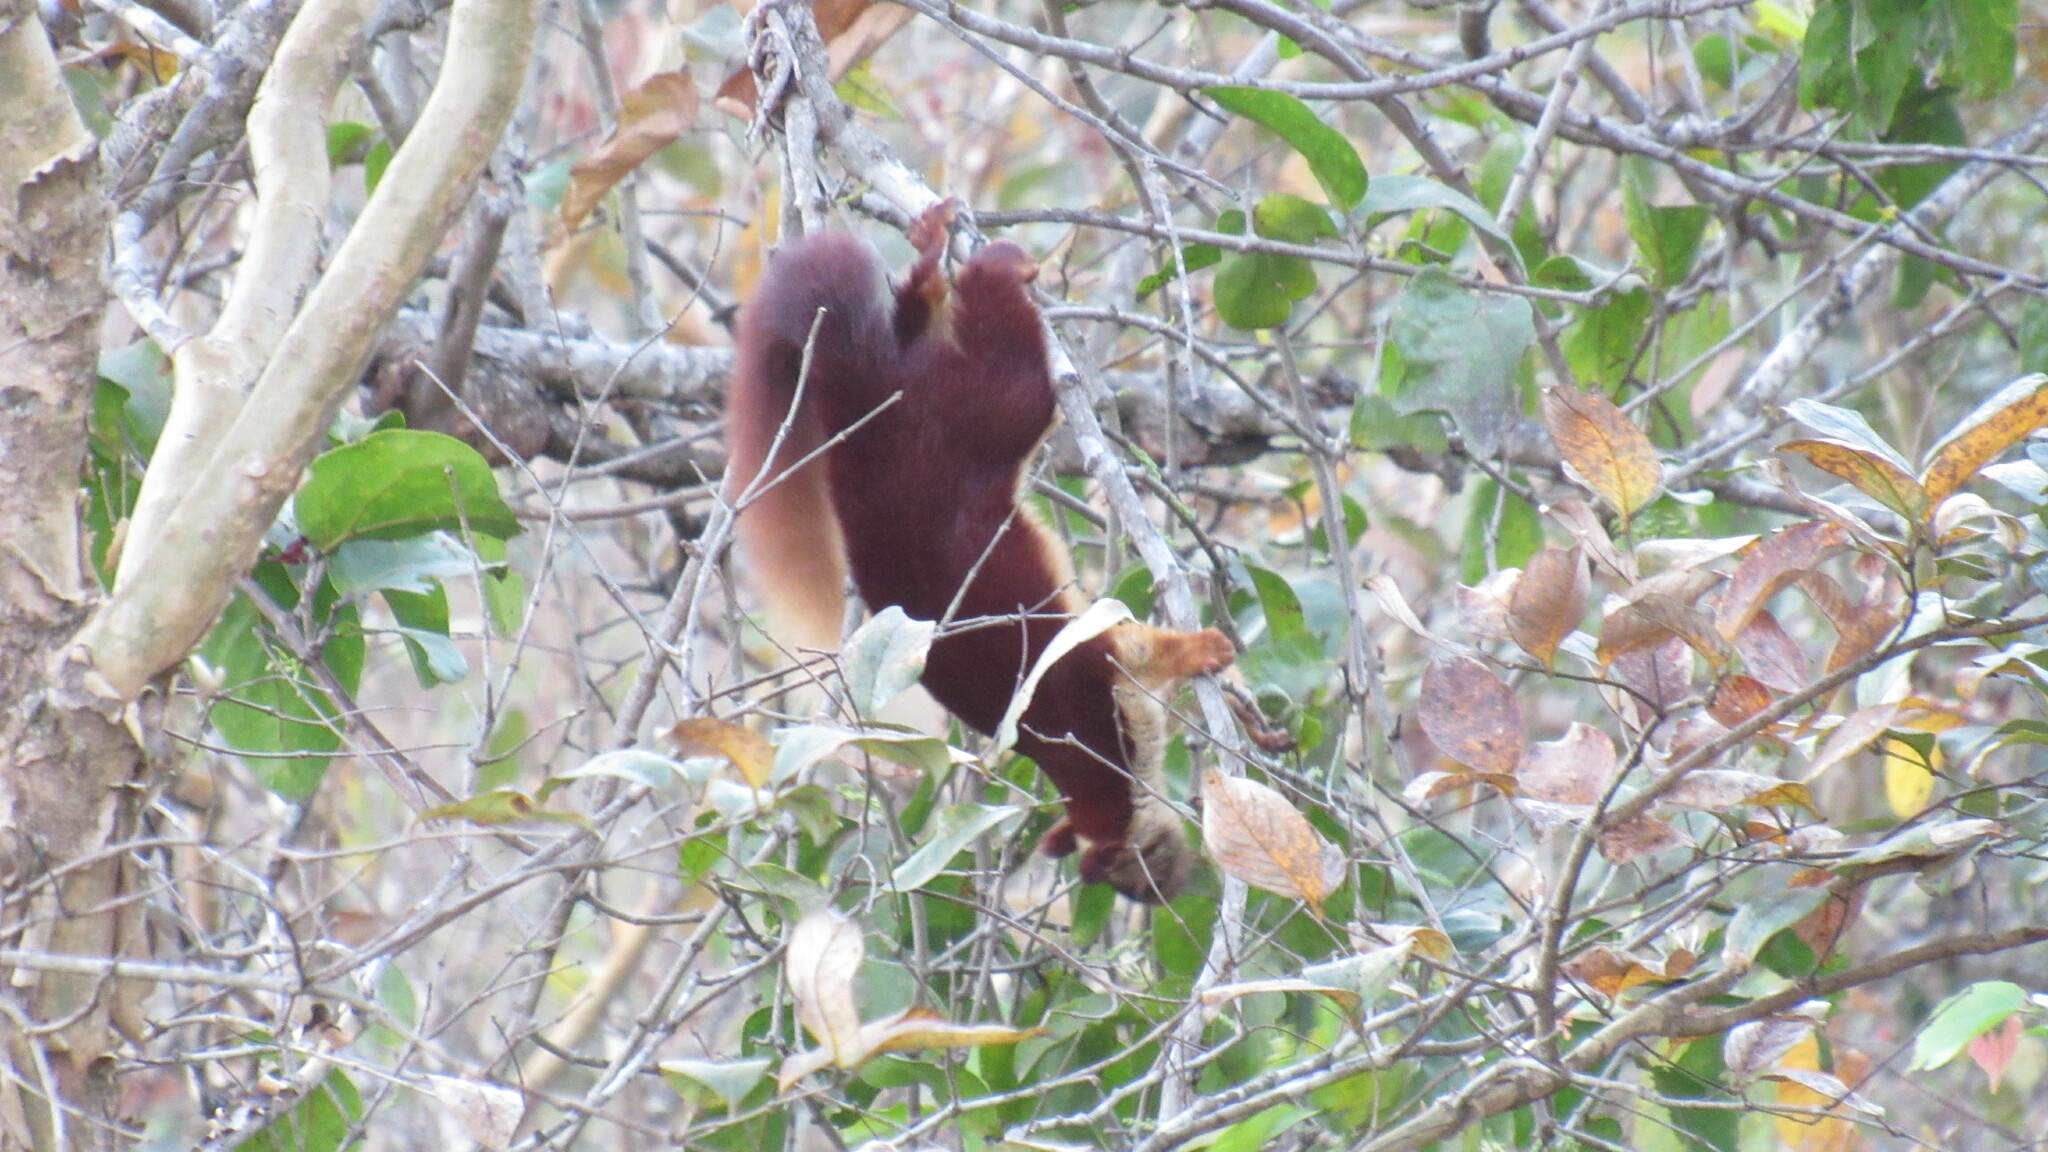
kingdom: Animalia
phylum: Chordata
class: Mammalia
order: Rodentia
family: Sciuridae
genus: Ratufa
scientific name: Ratufa indica
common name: Indian giant squirrel
